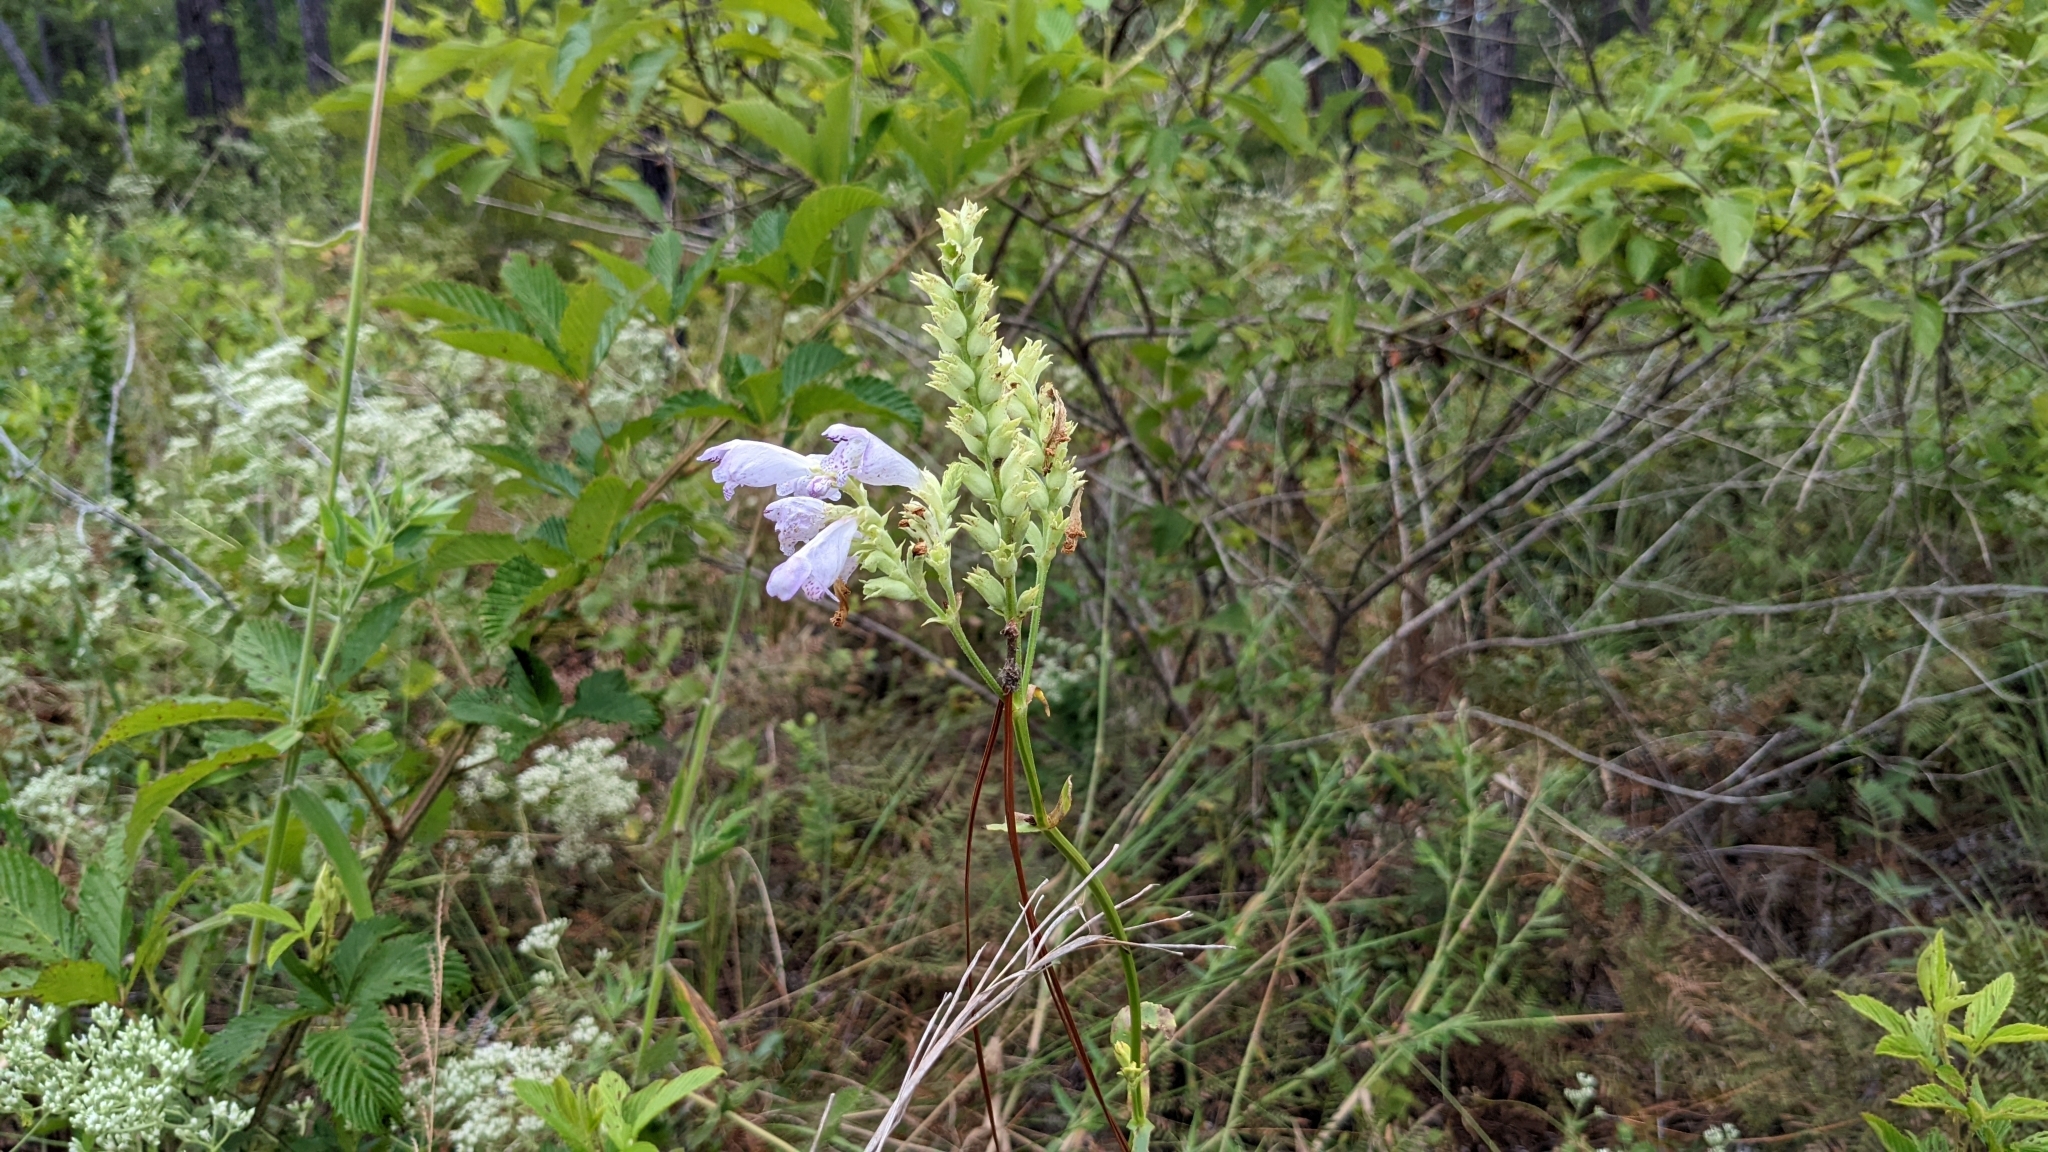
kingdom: Plantae
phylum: Tracheophyta
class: Magnoliopsida
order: Lamiales
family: Lamiaceae
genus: Physostegia
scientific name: Physostegia virginiana
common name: Obedient-plant
